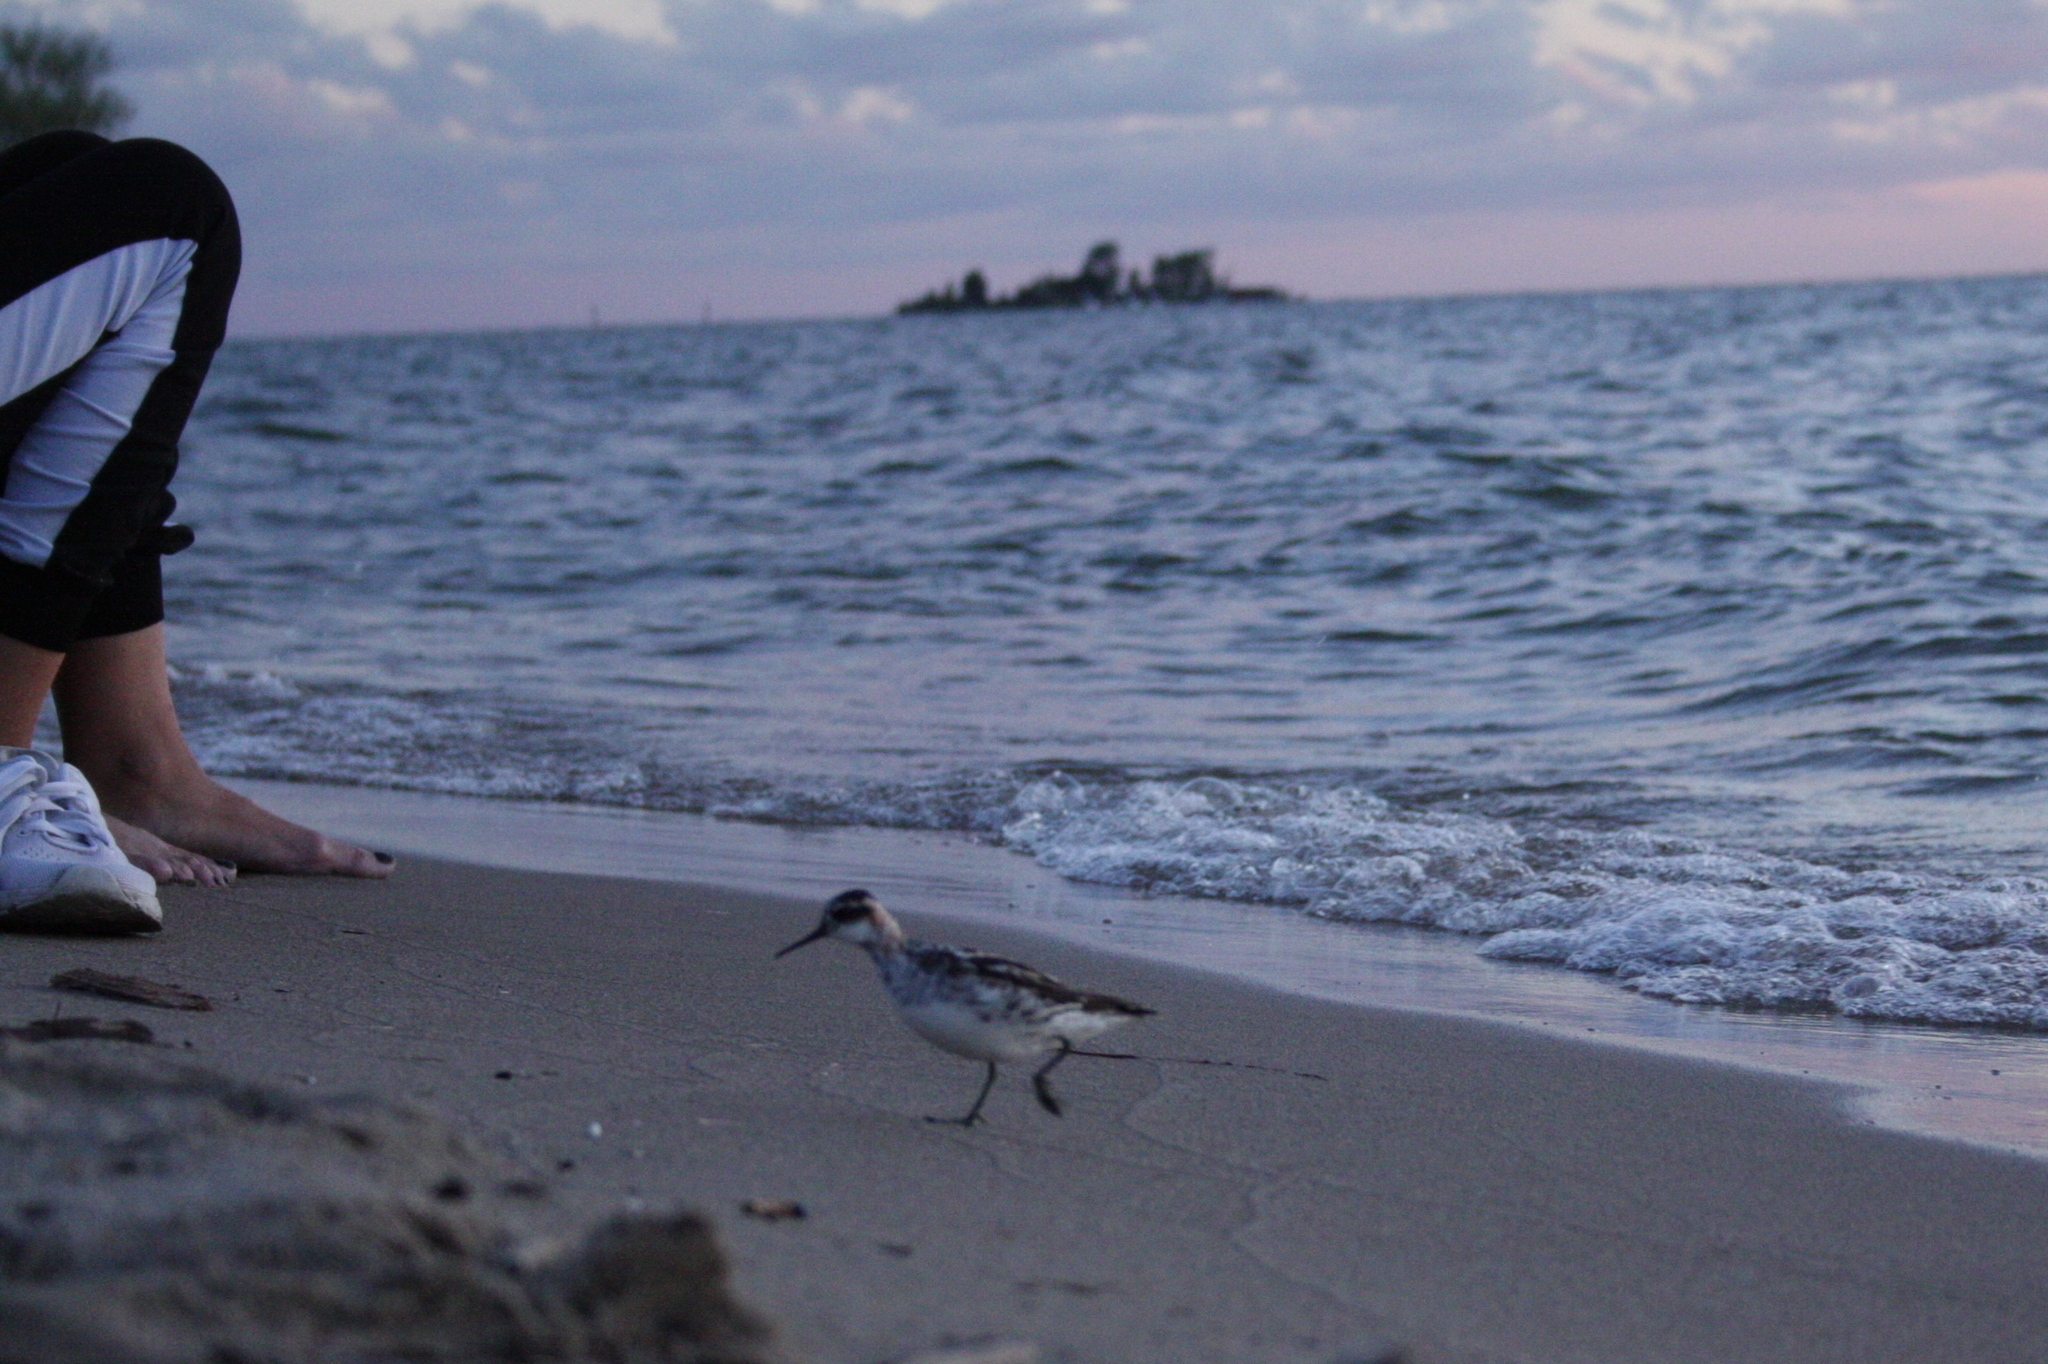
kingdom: Animalia
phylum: Chordata
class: Aves
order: Charadriiformes
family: Scolopacidae
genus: Phalaropus
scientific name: Phalaropus lobatus
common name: Red-necked phalarope
